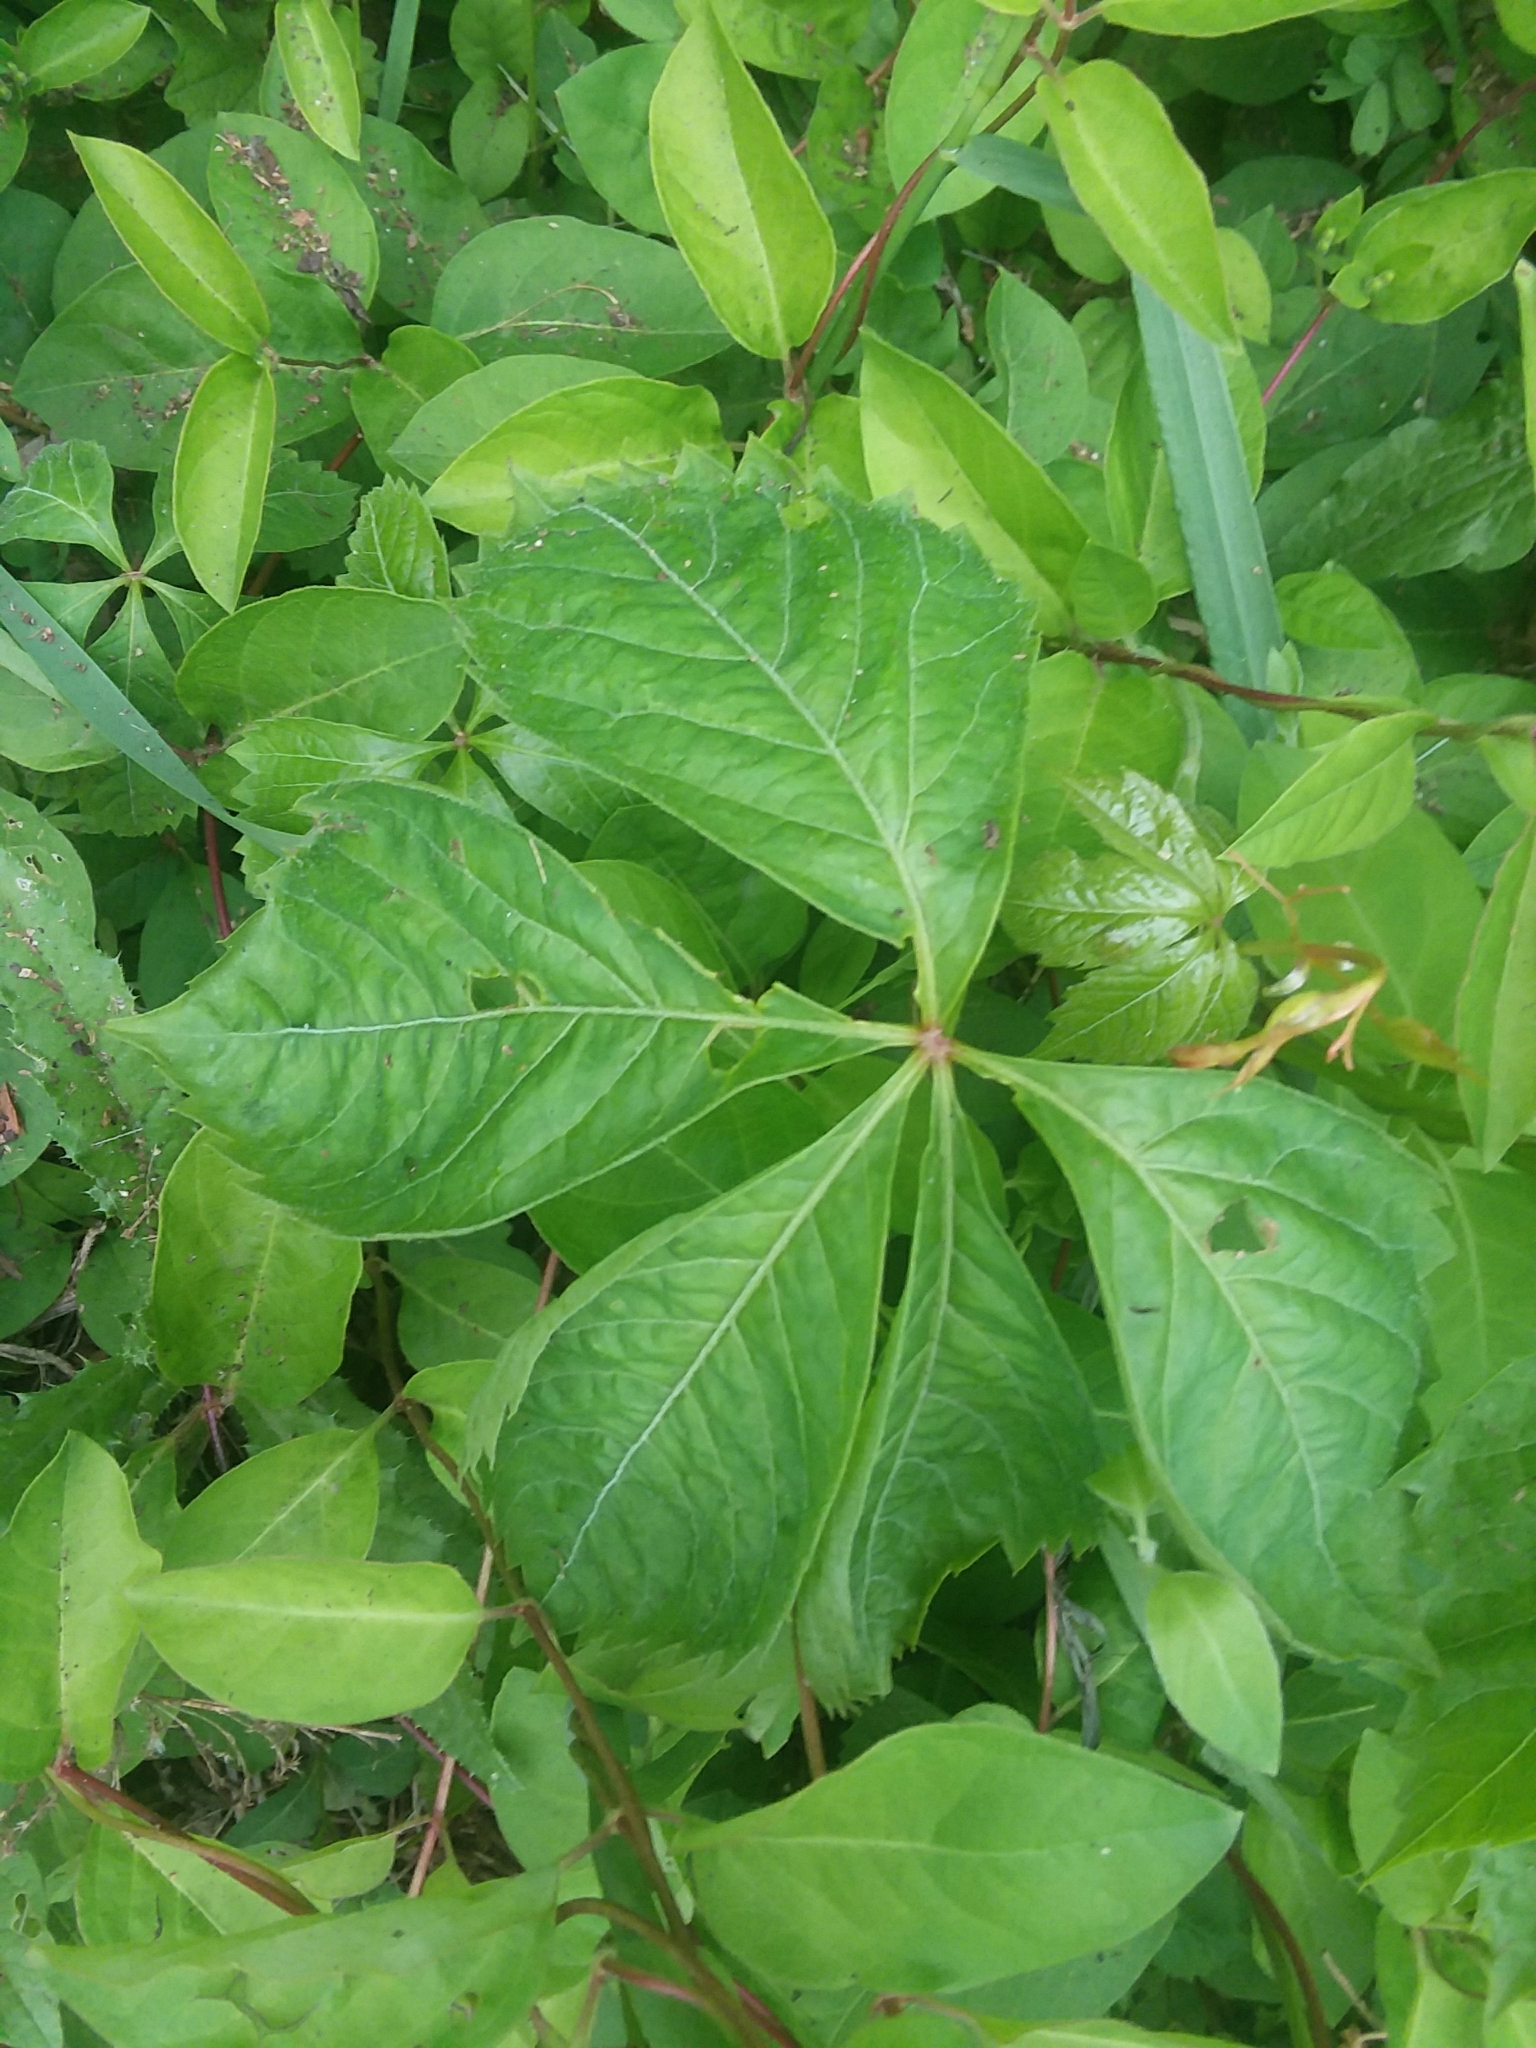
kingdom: Plantae
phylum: Tracheophyta
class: Magnoliopsida
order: Vitales
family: Vitaceae
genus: Parthenocissus
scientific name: Parthenocissus quinquefolia
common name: Virginia-creeper
